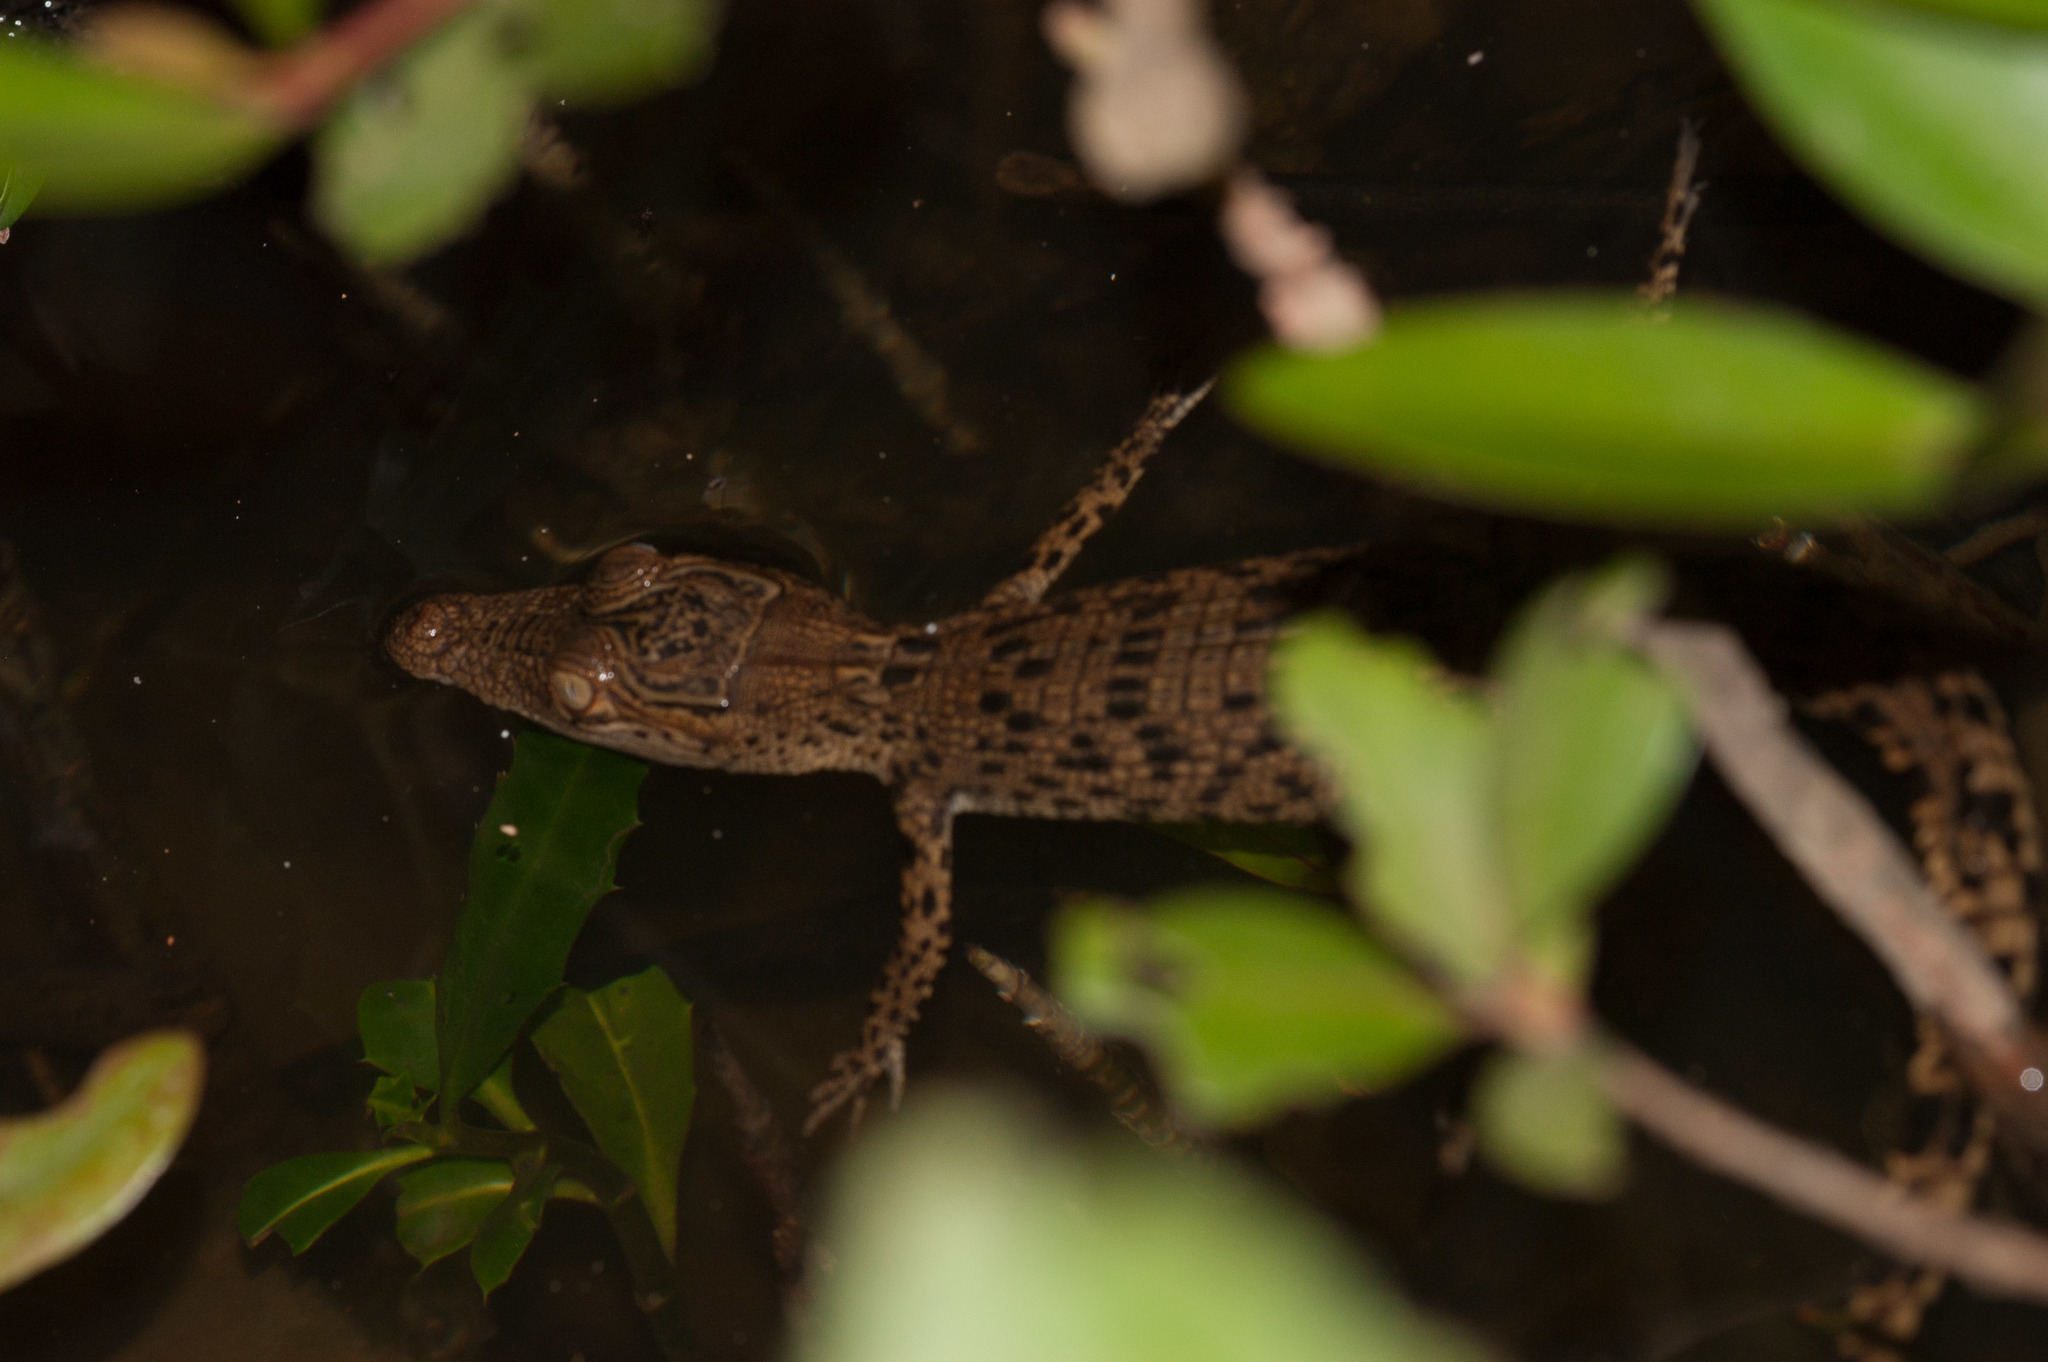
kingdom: Animalia
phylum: Chordata
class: Crocodylia
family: Crocodylidae
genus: Crocodylus
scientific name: Crocodylus porosus
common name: Saltwater crocodile
